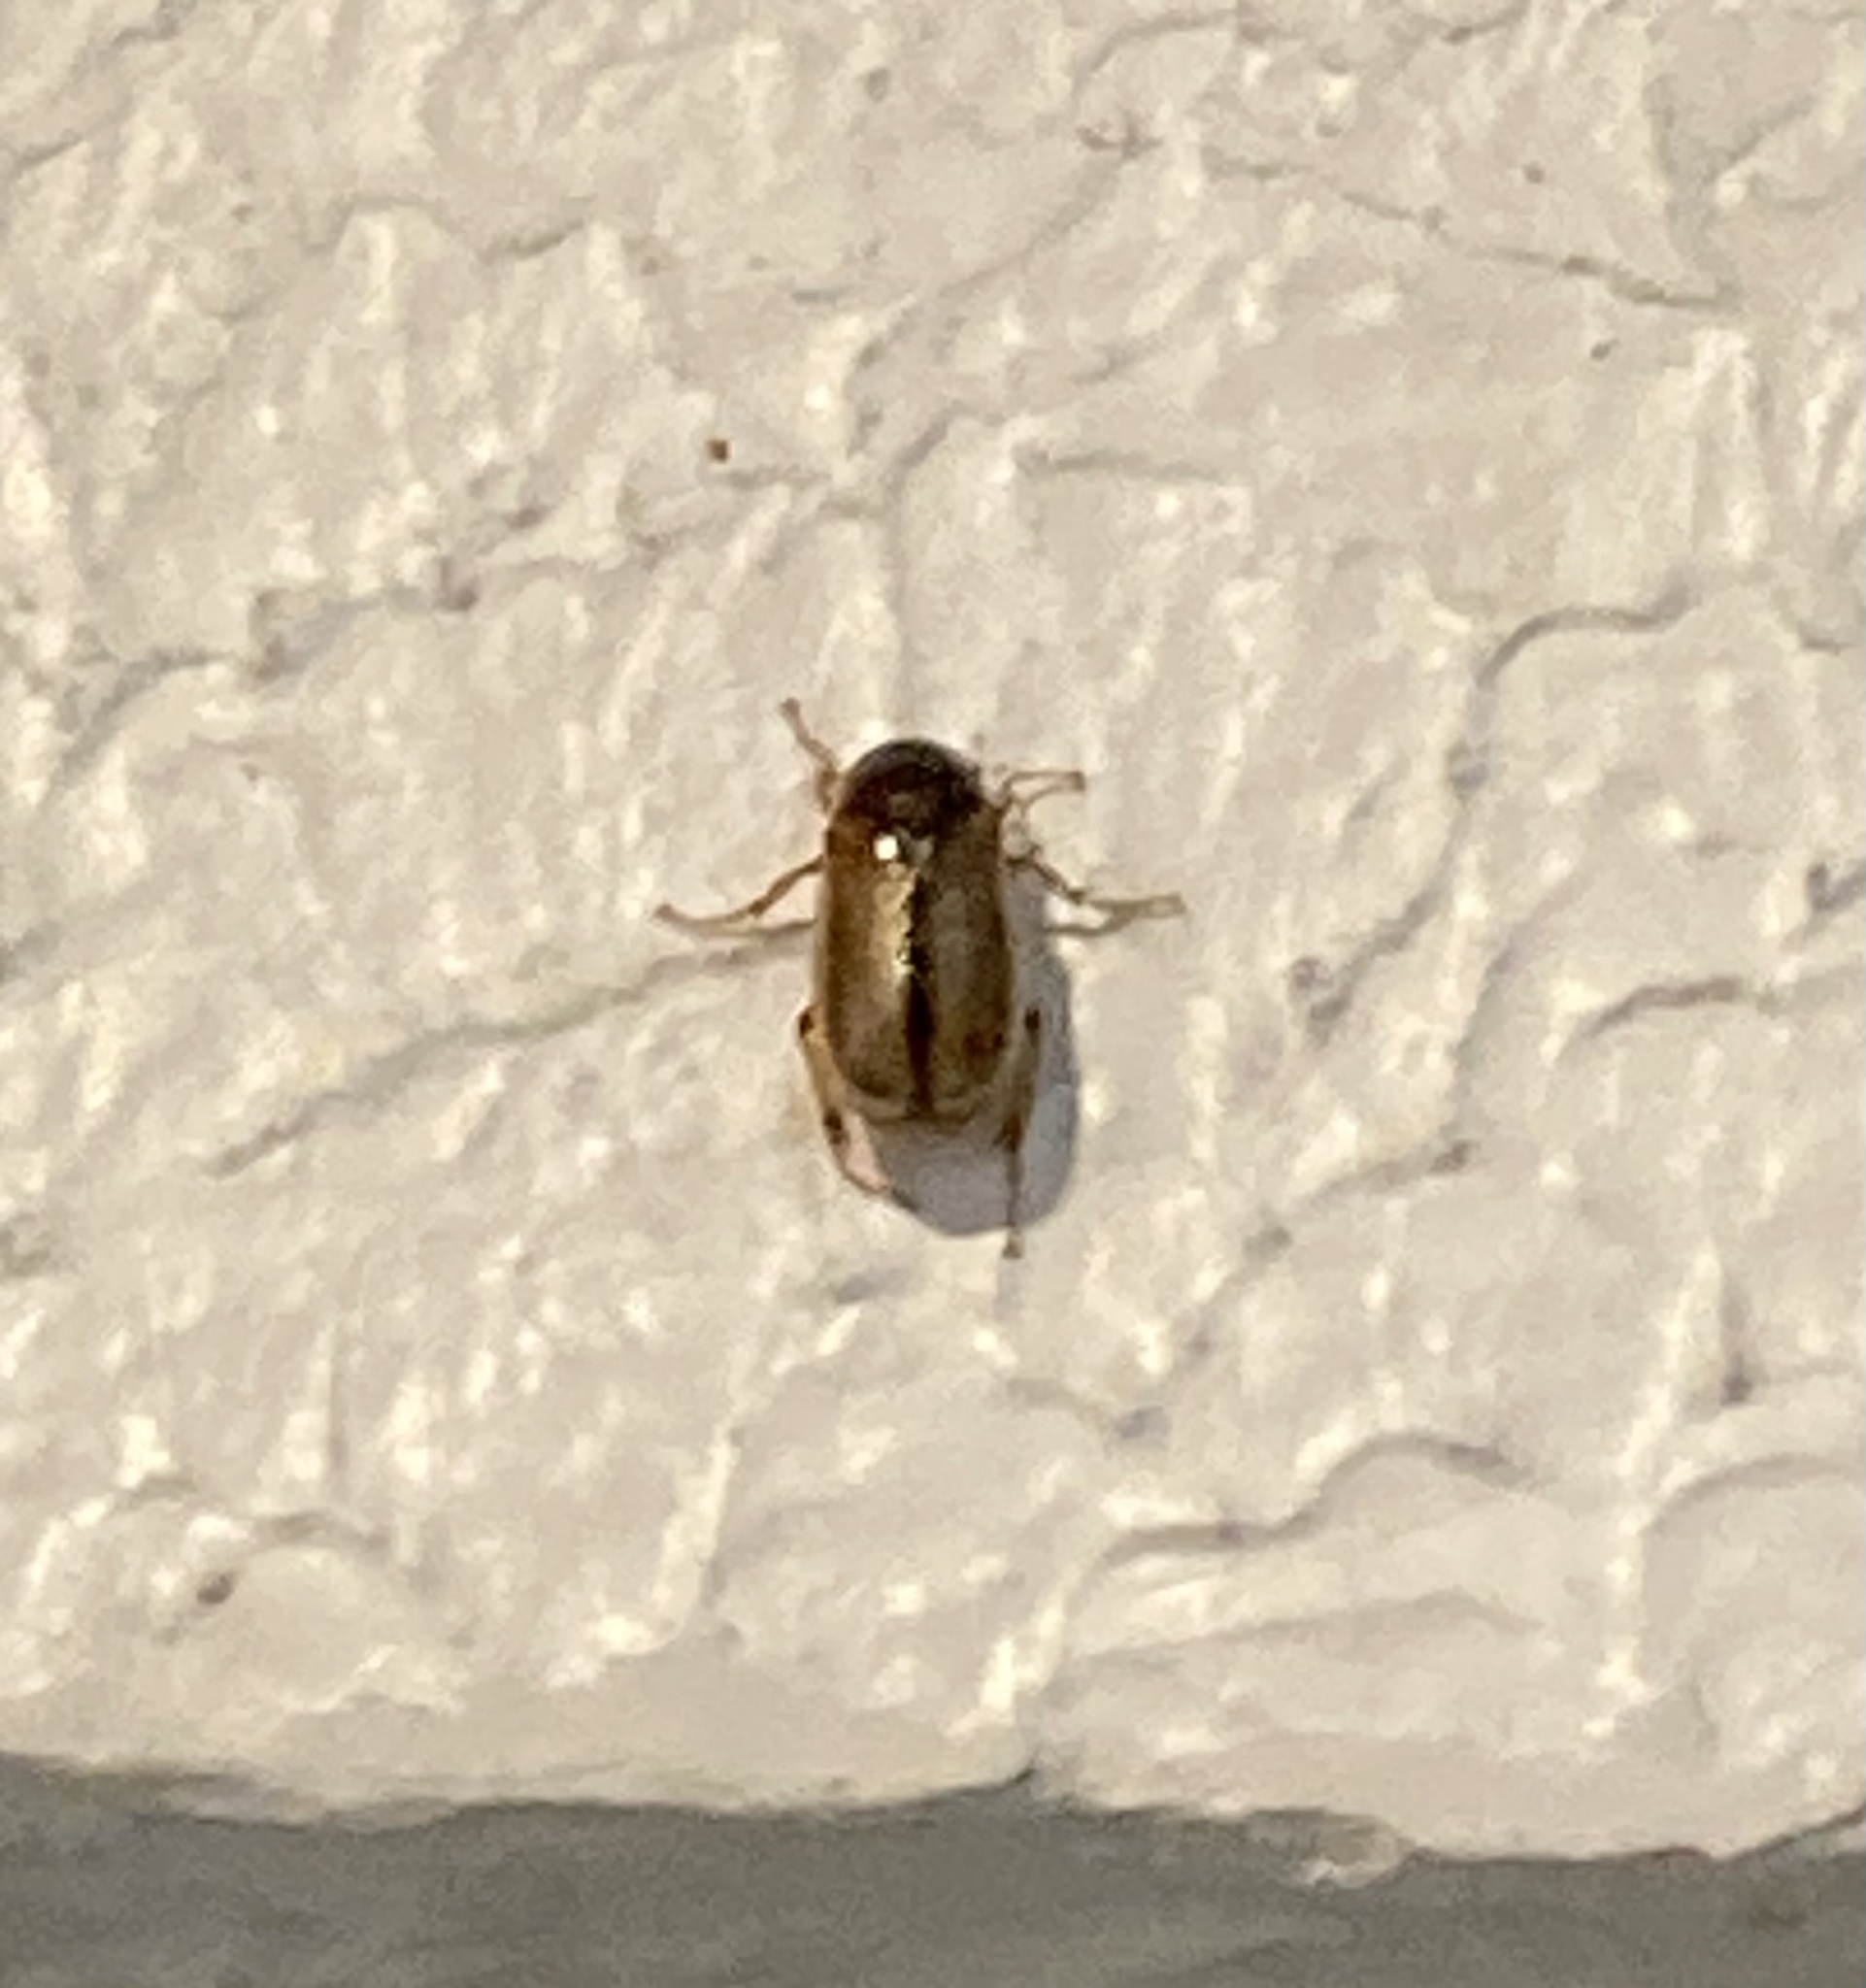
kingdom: Animalia
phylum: Arthropoda
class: Insecta
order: Coleoptera
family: Scarabaeidae
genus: Phyllophaga
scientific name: Phyllophaga bruneri
